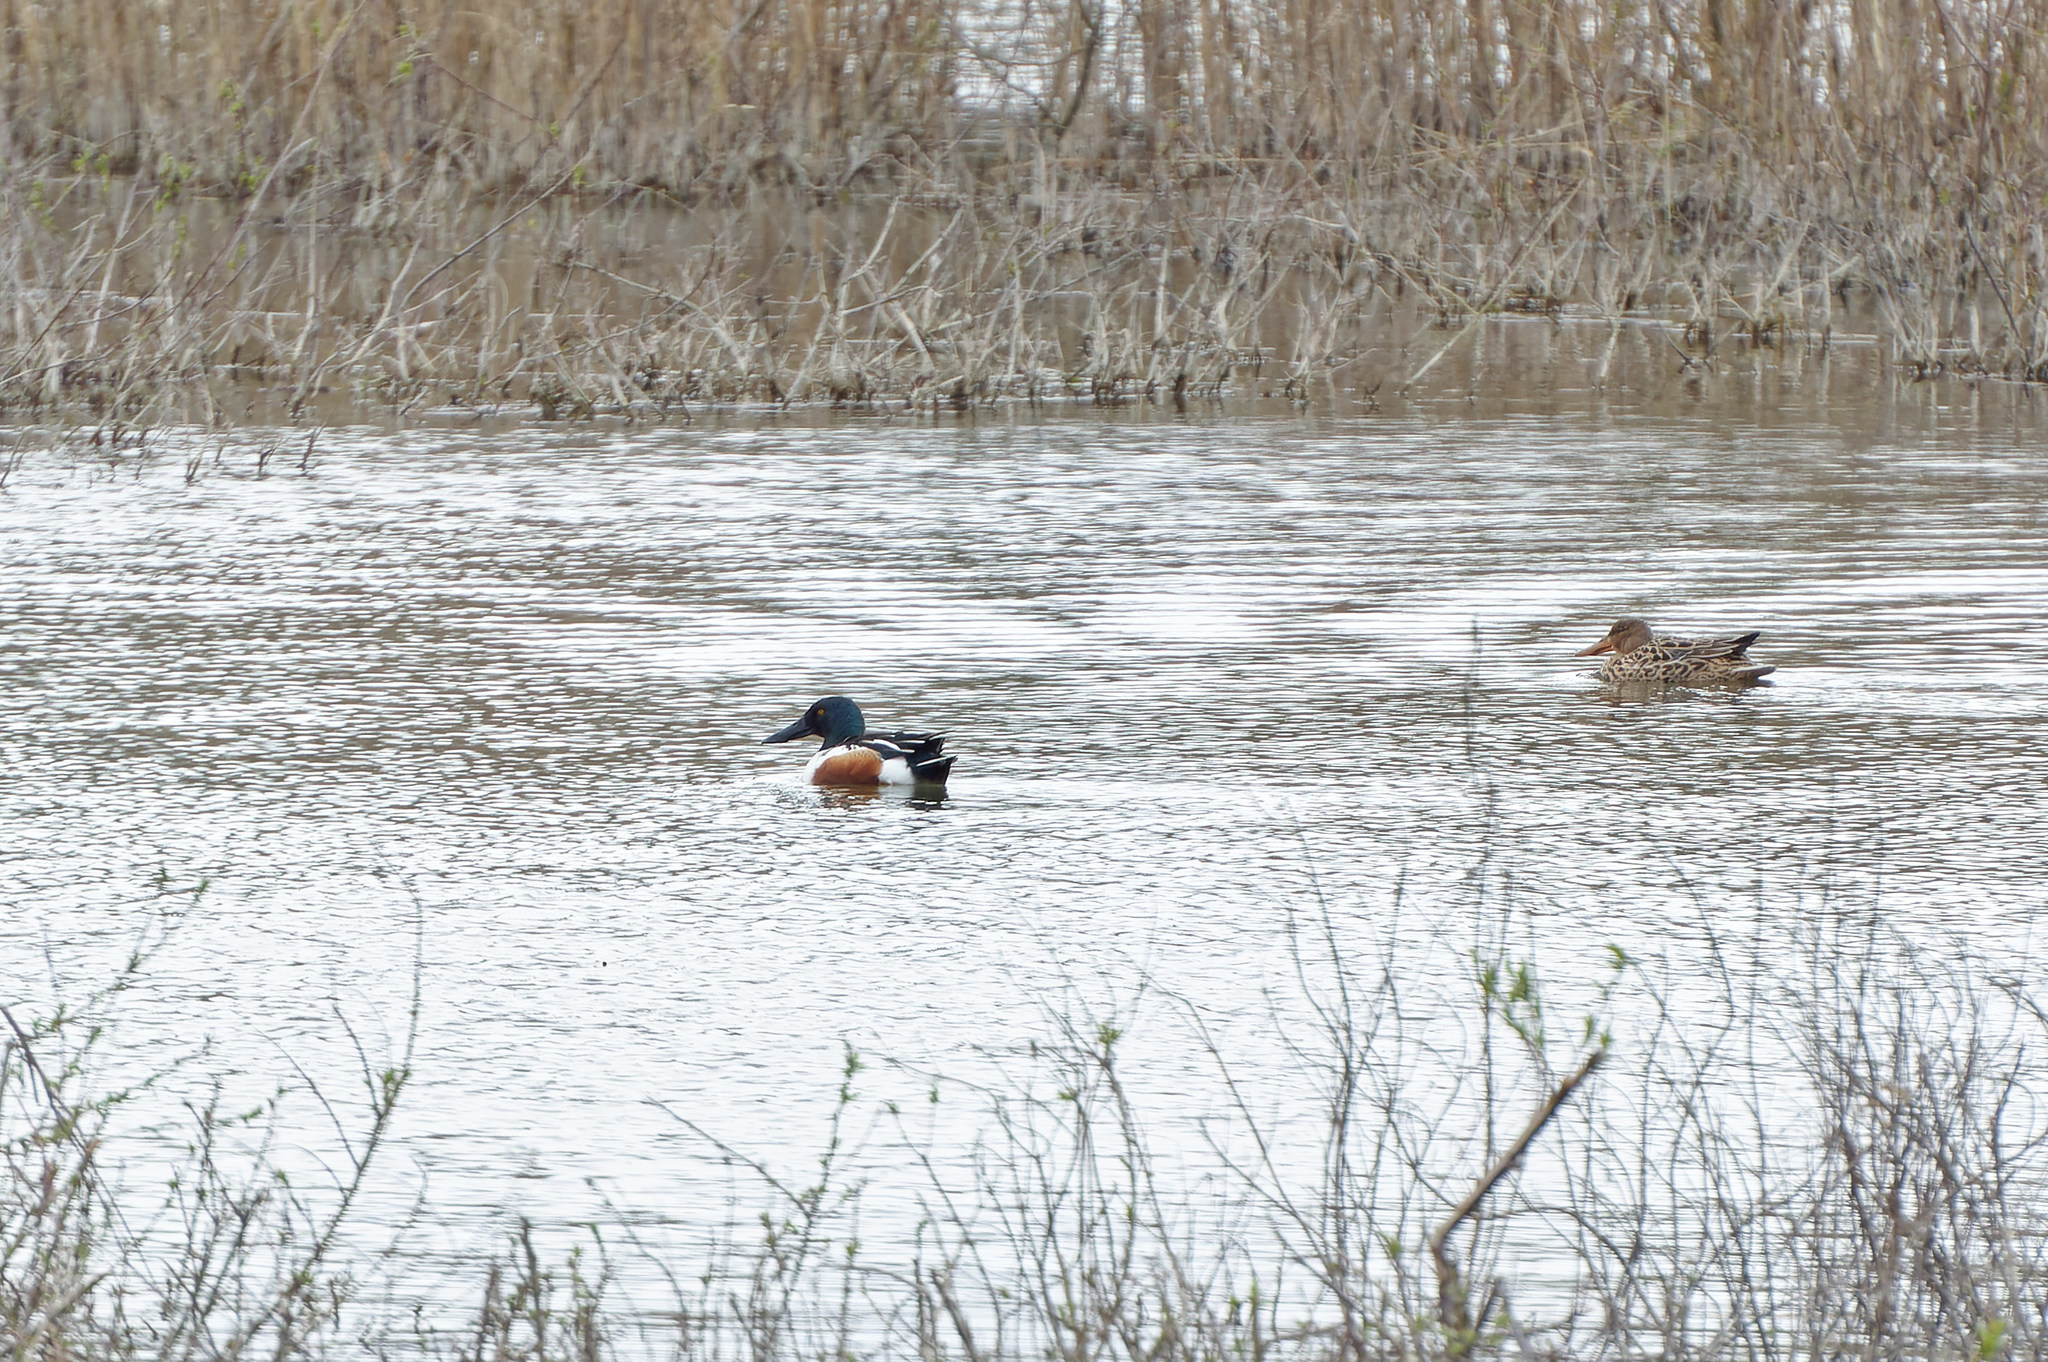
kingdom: Animalia
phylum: Chordata
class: Aves
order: Anseriformes
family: Anatidae
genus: Spatula
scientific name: Spatula clypeata
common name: Northern shoveler
